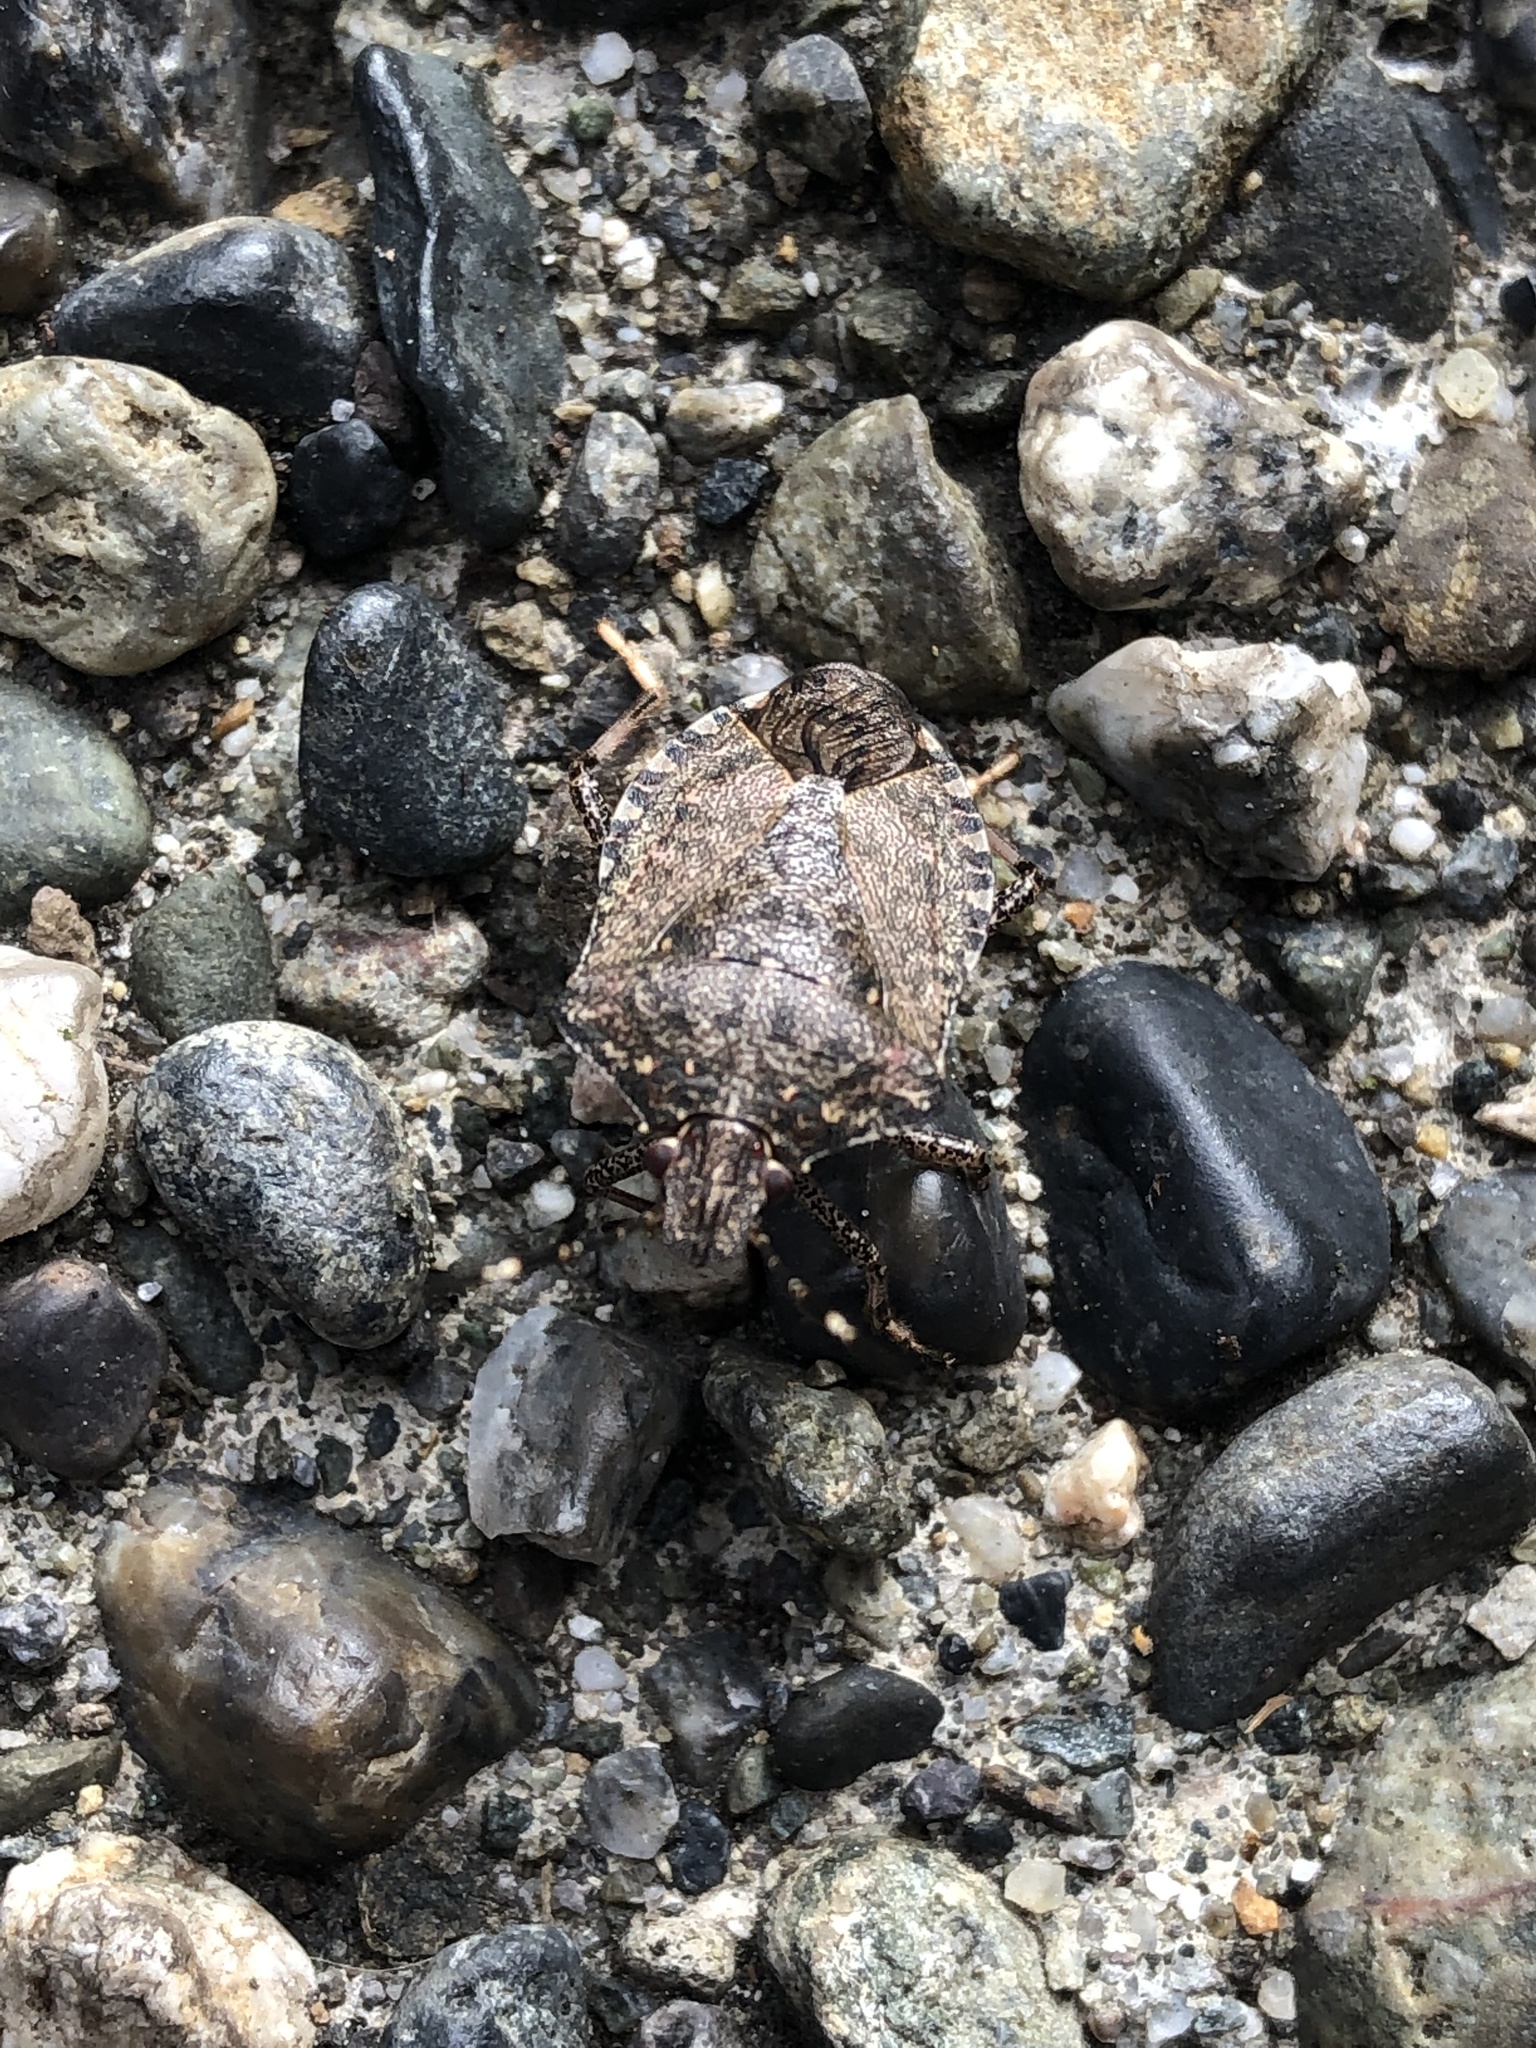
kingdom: Animalia
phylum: Arthropoda
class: Insecta
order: Hemiptera
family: Pentatomidae
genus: Halyomorpha
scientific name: Halyomorpha halys
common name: Brown marmorated stink bug
